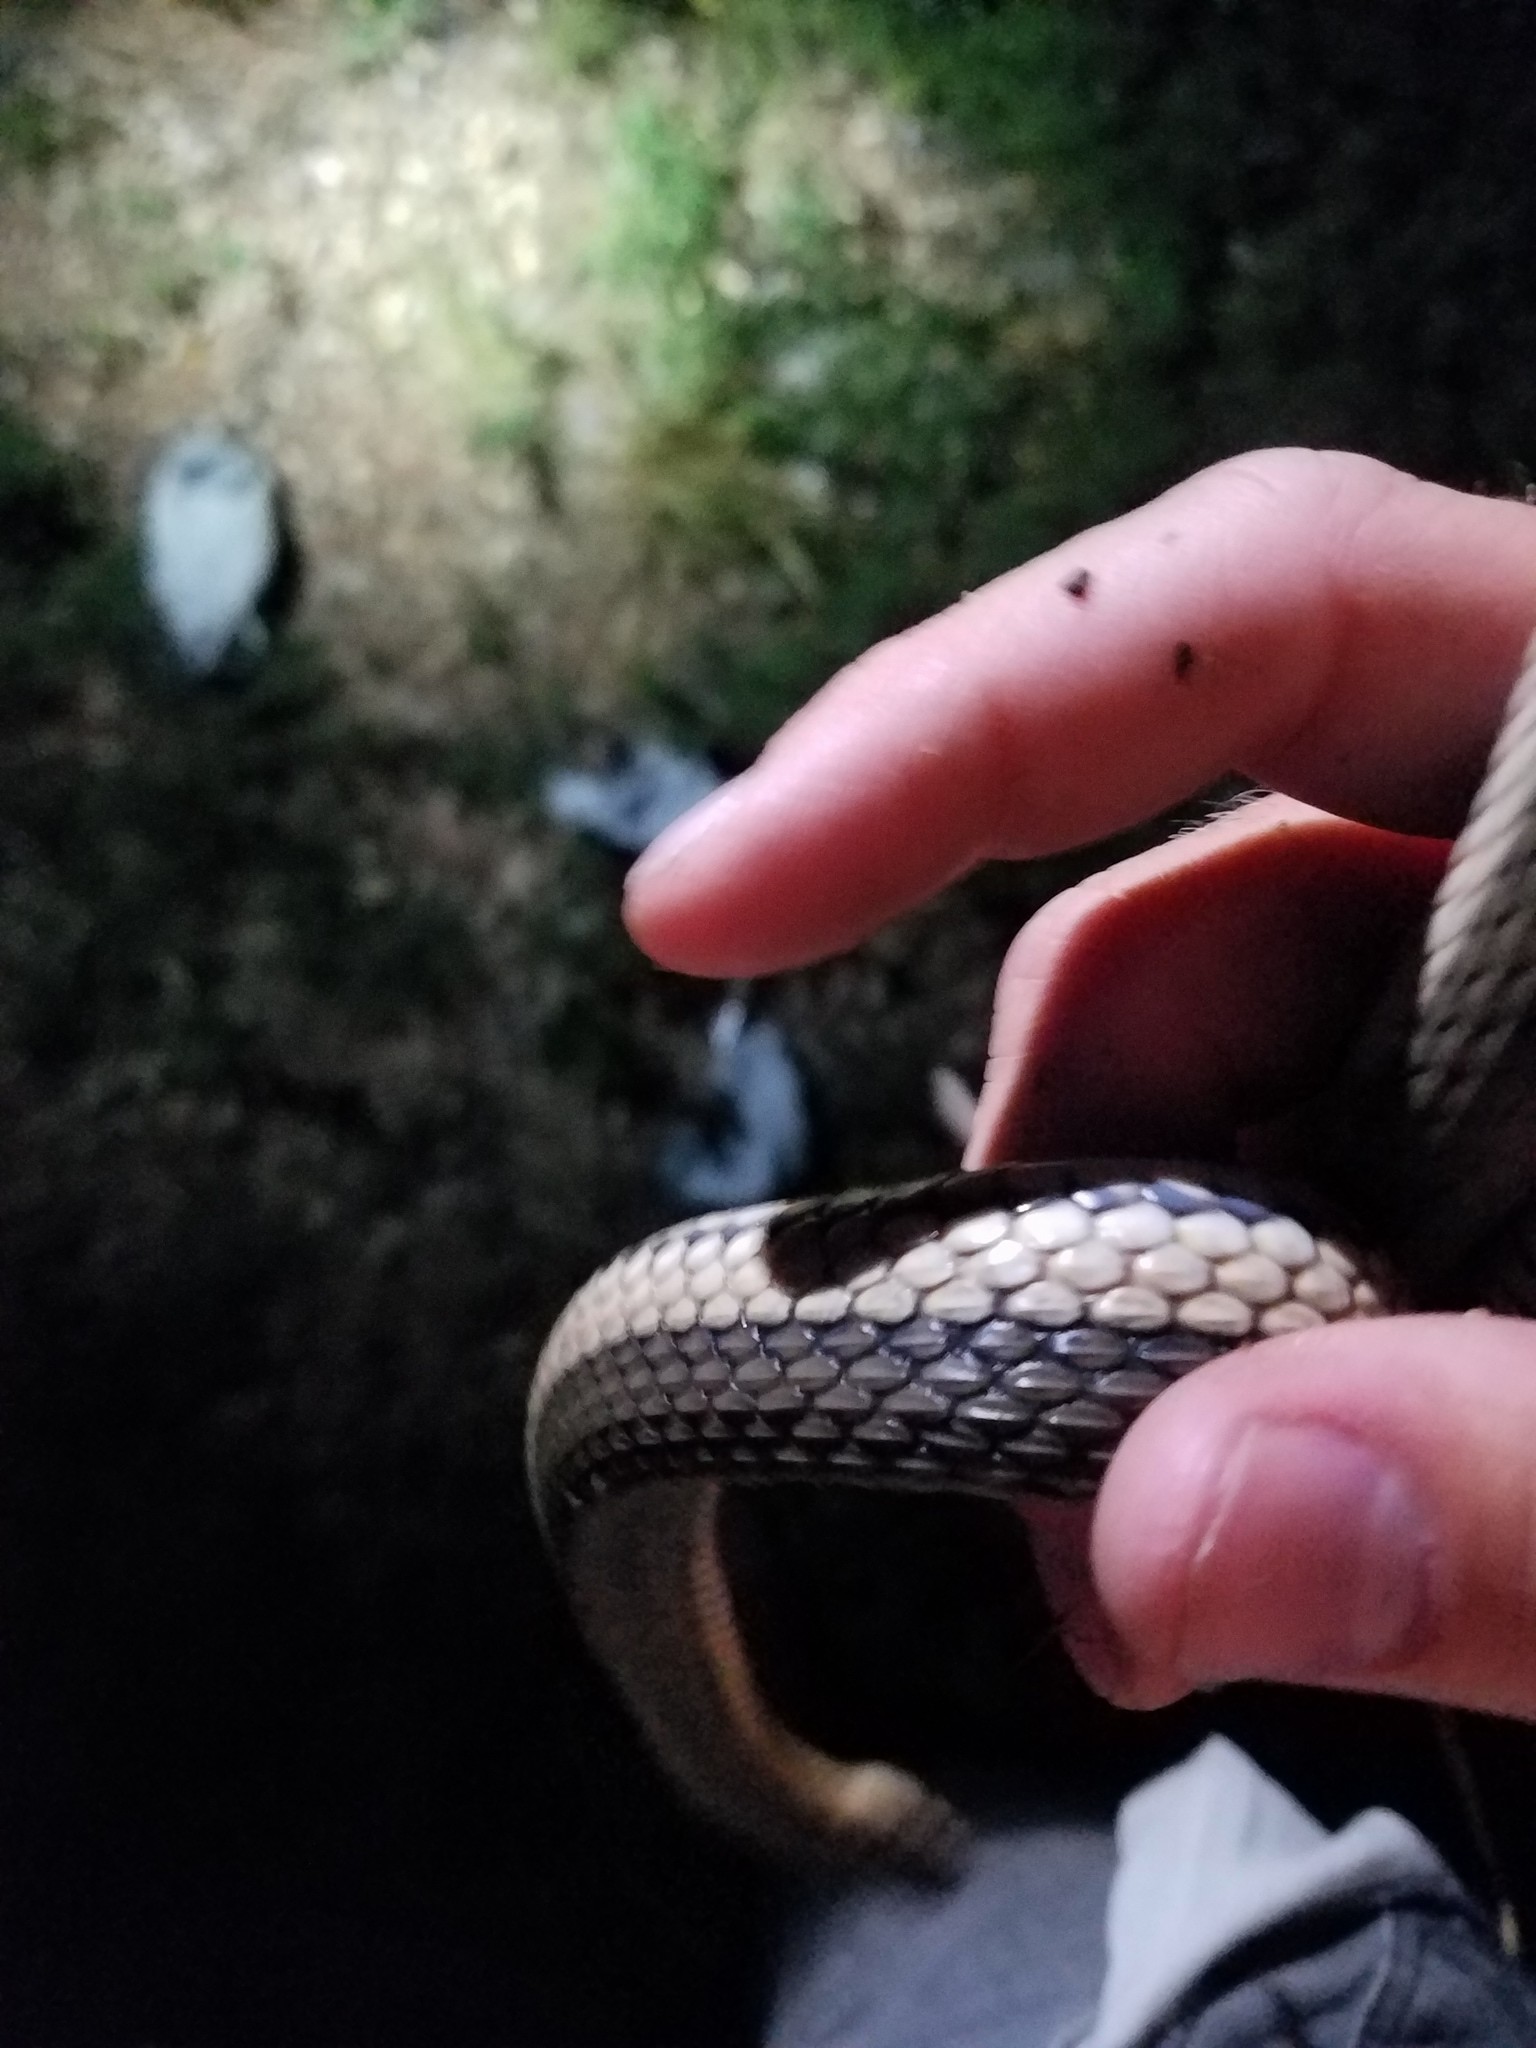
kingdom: Animalia
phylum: Chordata
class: Squamata
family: Colubridae
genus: Regina
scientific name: Regina grahamii
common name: Graham's crayfish snake
